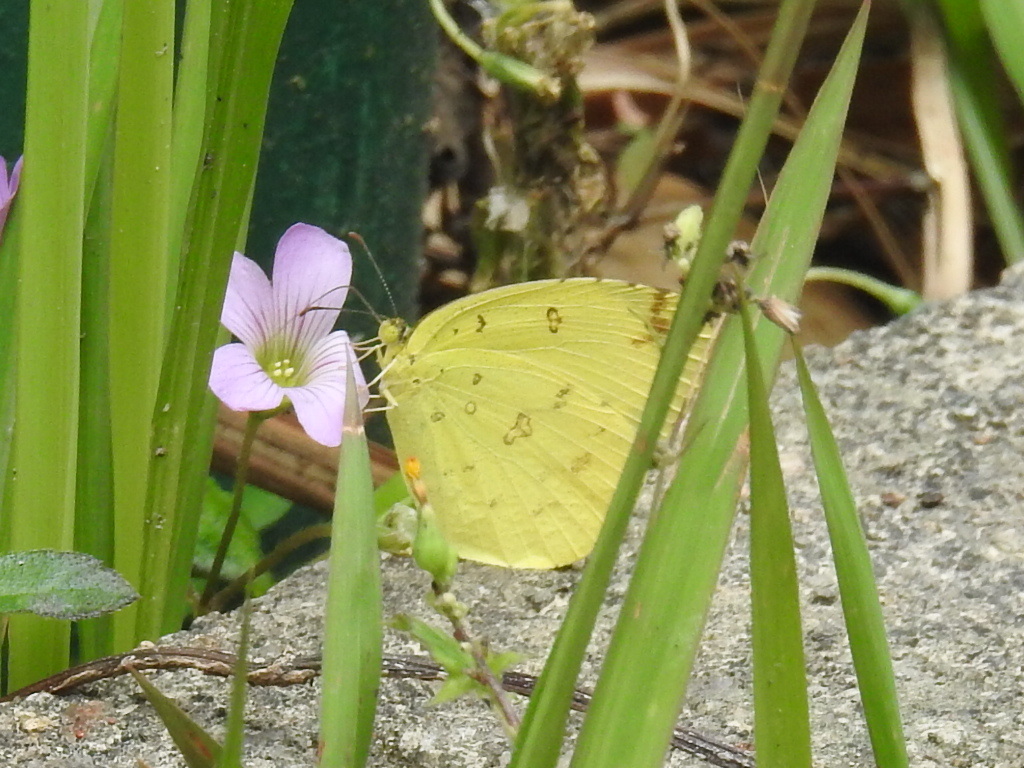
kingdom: Animalia
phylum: Arthropoda
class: Insecta
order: Lepidoptera
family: Pieridae
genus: Eurema
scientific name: Eurema hecabe
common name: Pale grass yellow
